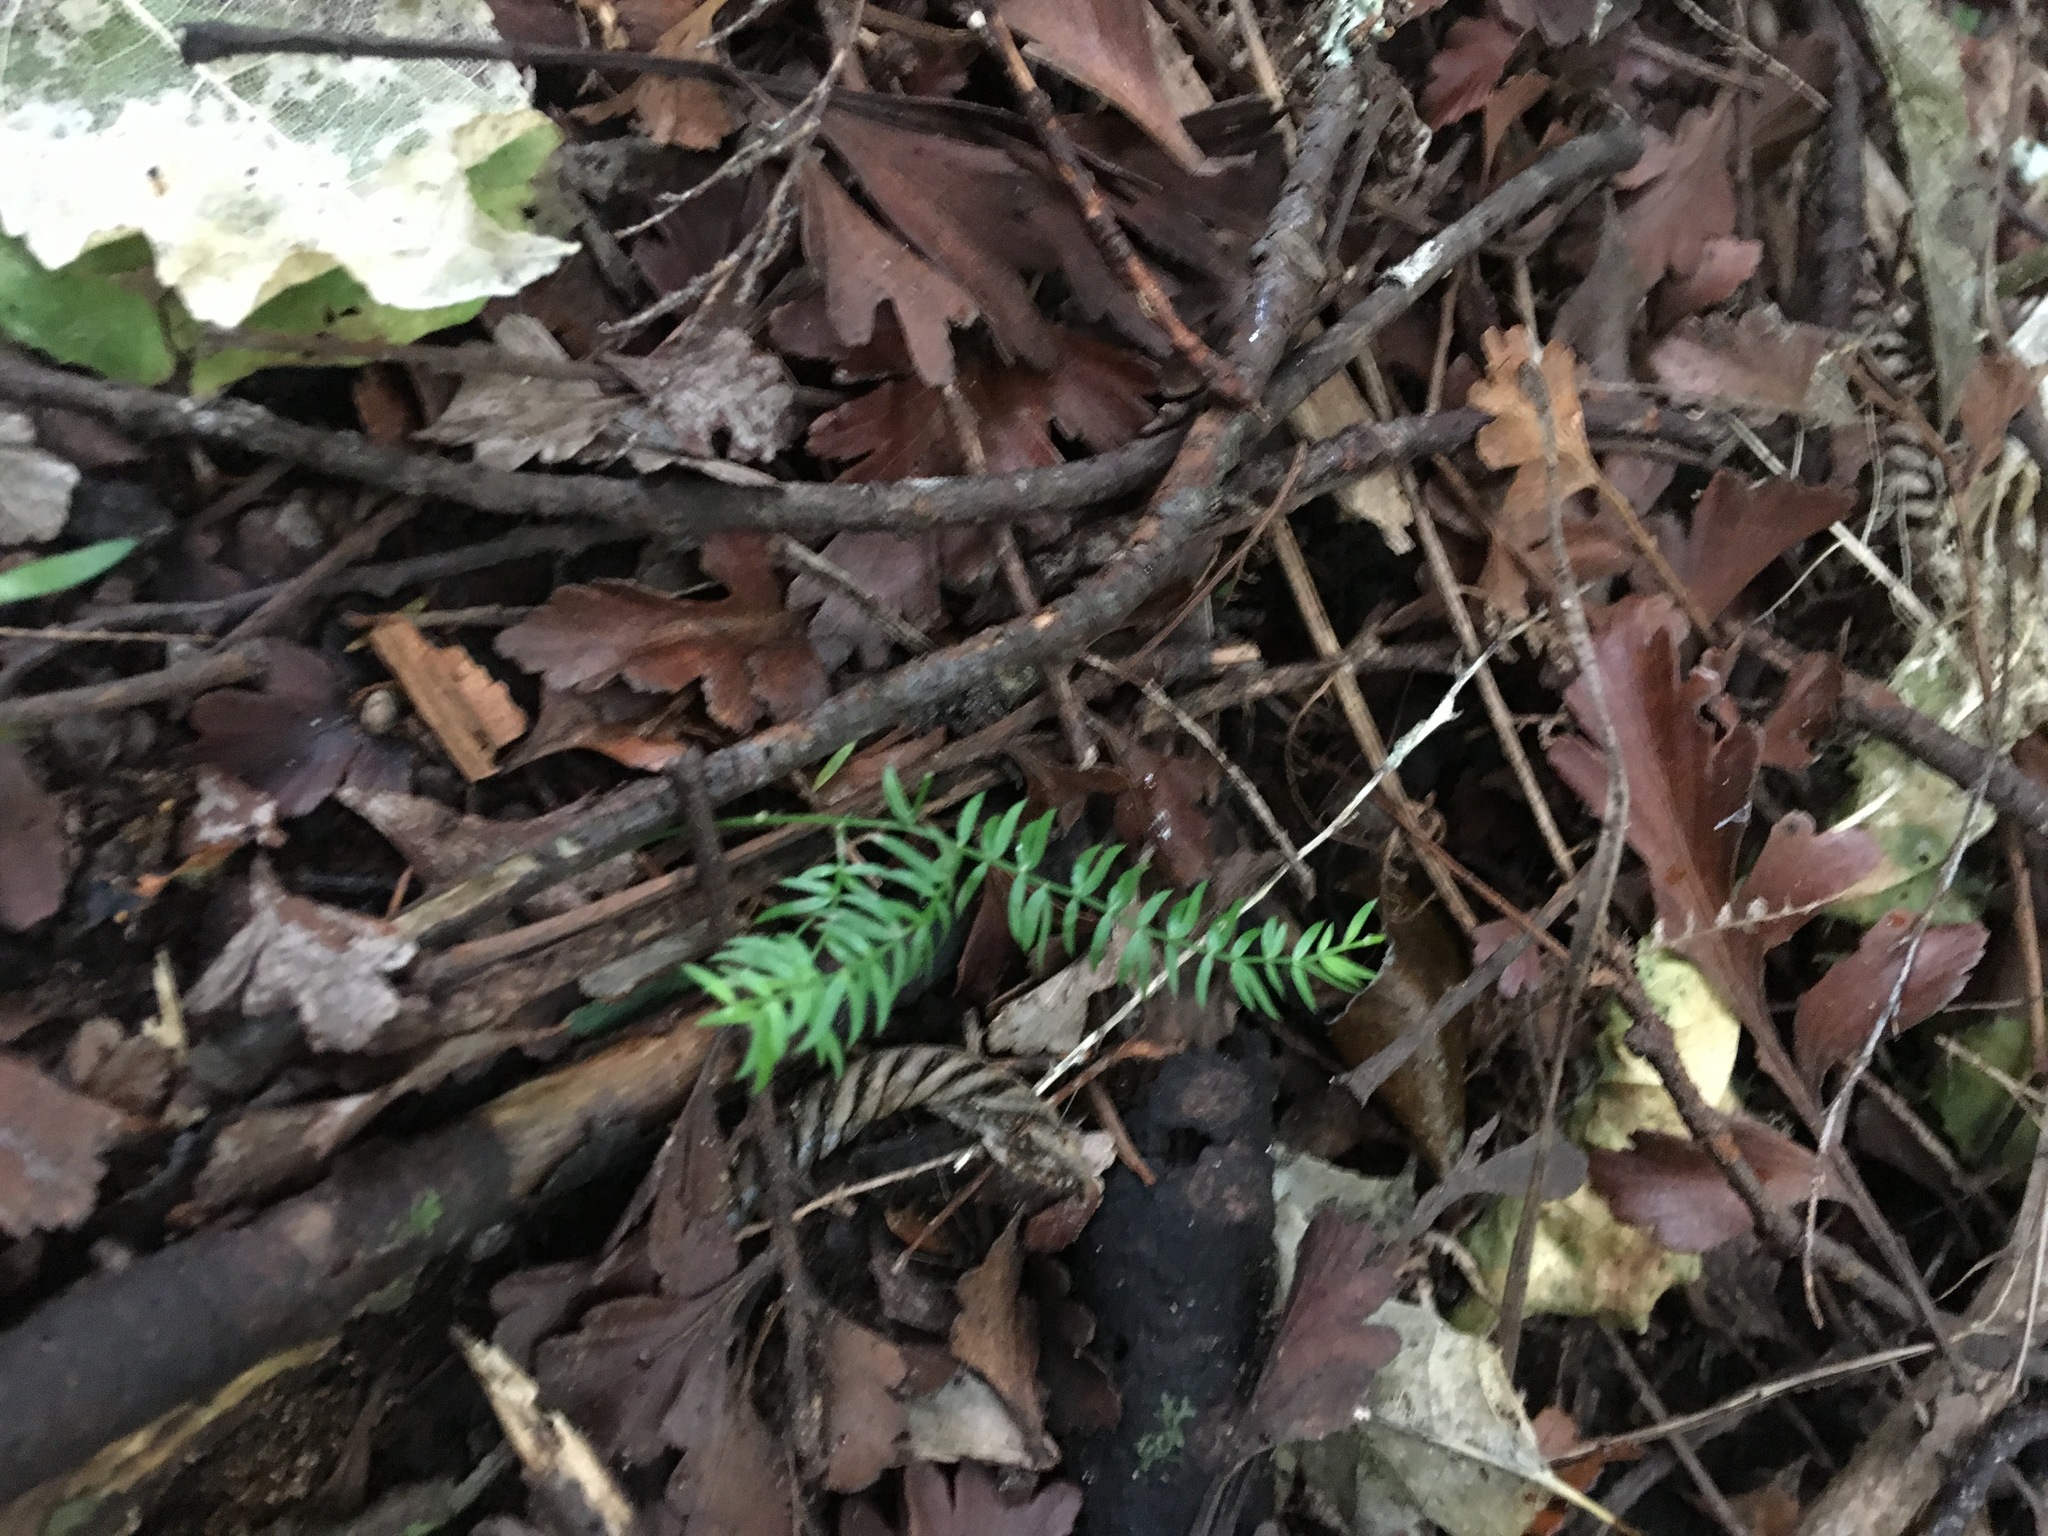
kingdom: Plantae
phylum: Tracheophyta
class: Liliopsida
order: Asparagales
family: Asparagaceae
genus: Asparagus
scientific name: Asparagus scandens
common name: Asparagus-fern
